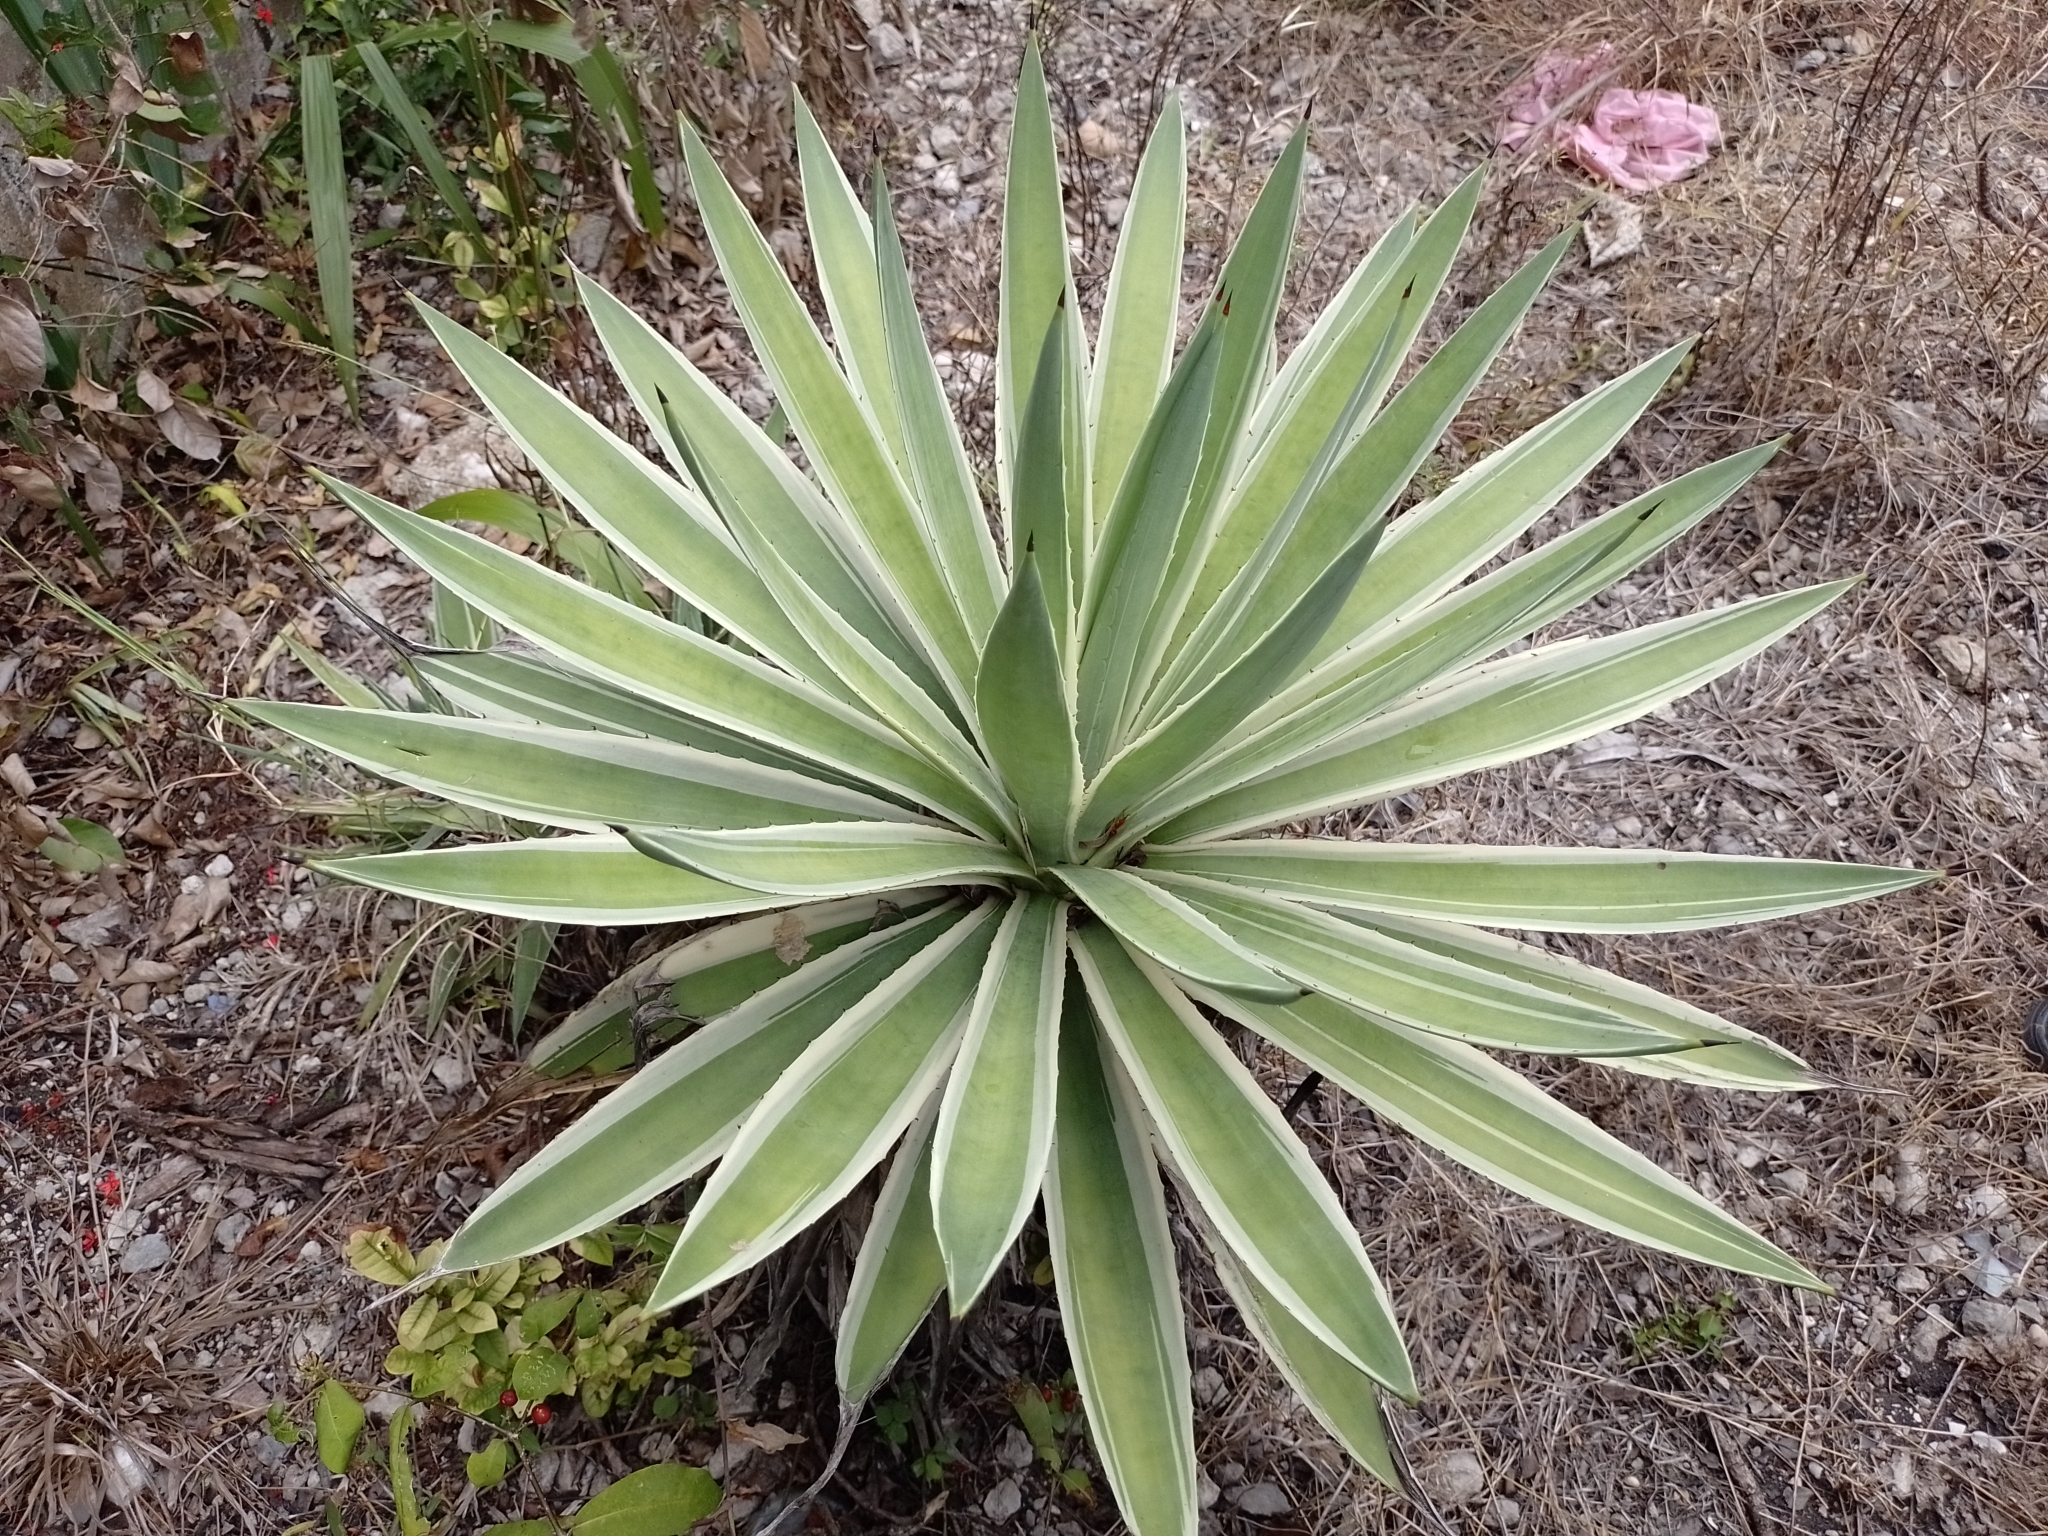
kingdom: Plantae
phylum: Tracheophyta
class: Liliopsida
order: Asparagales
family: Asparagaceae
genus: Agave
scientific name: Agave angustifolia
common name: Mescal agave
